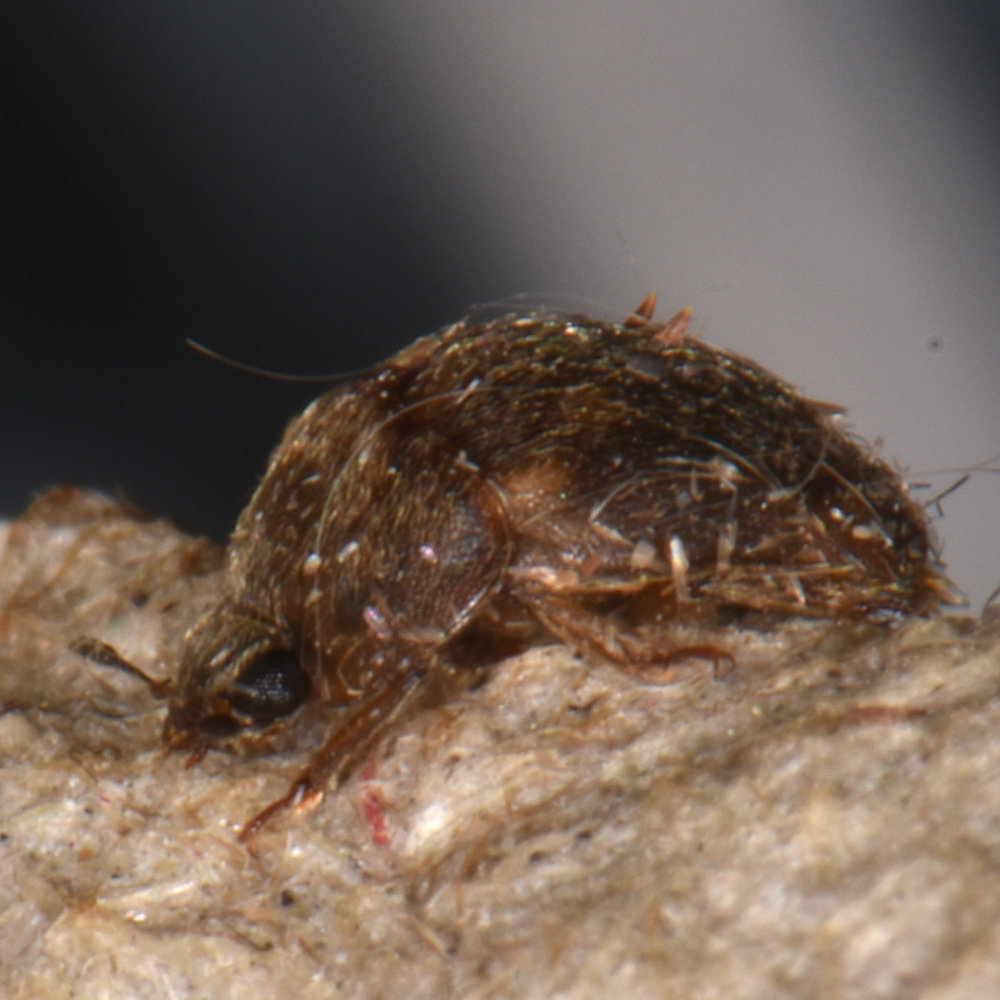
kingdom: Animalia
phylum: Arthropoda
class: Insecta
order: Coleoptera
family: Nitidulidae
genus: Amphicrossus
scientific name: Amphicrossus ciliatus
